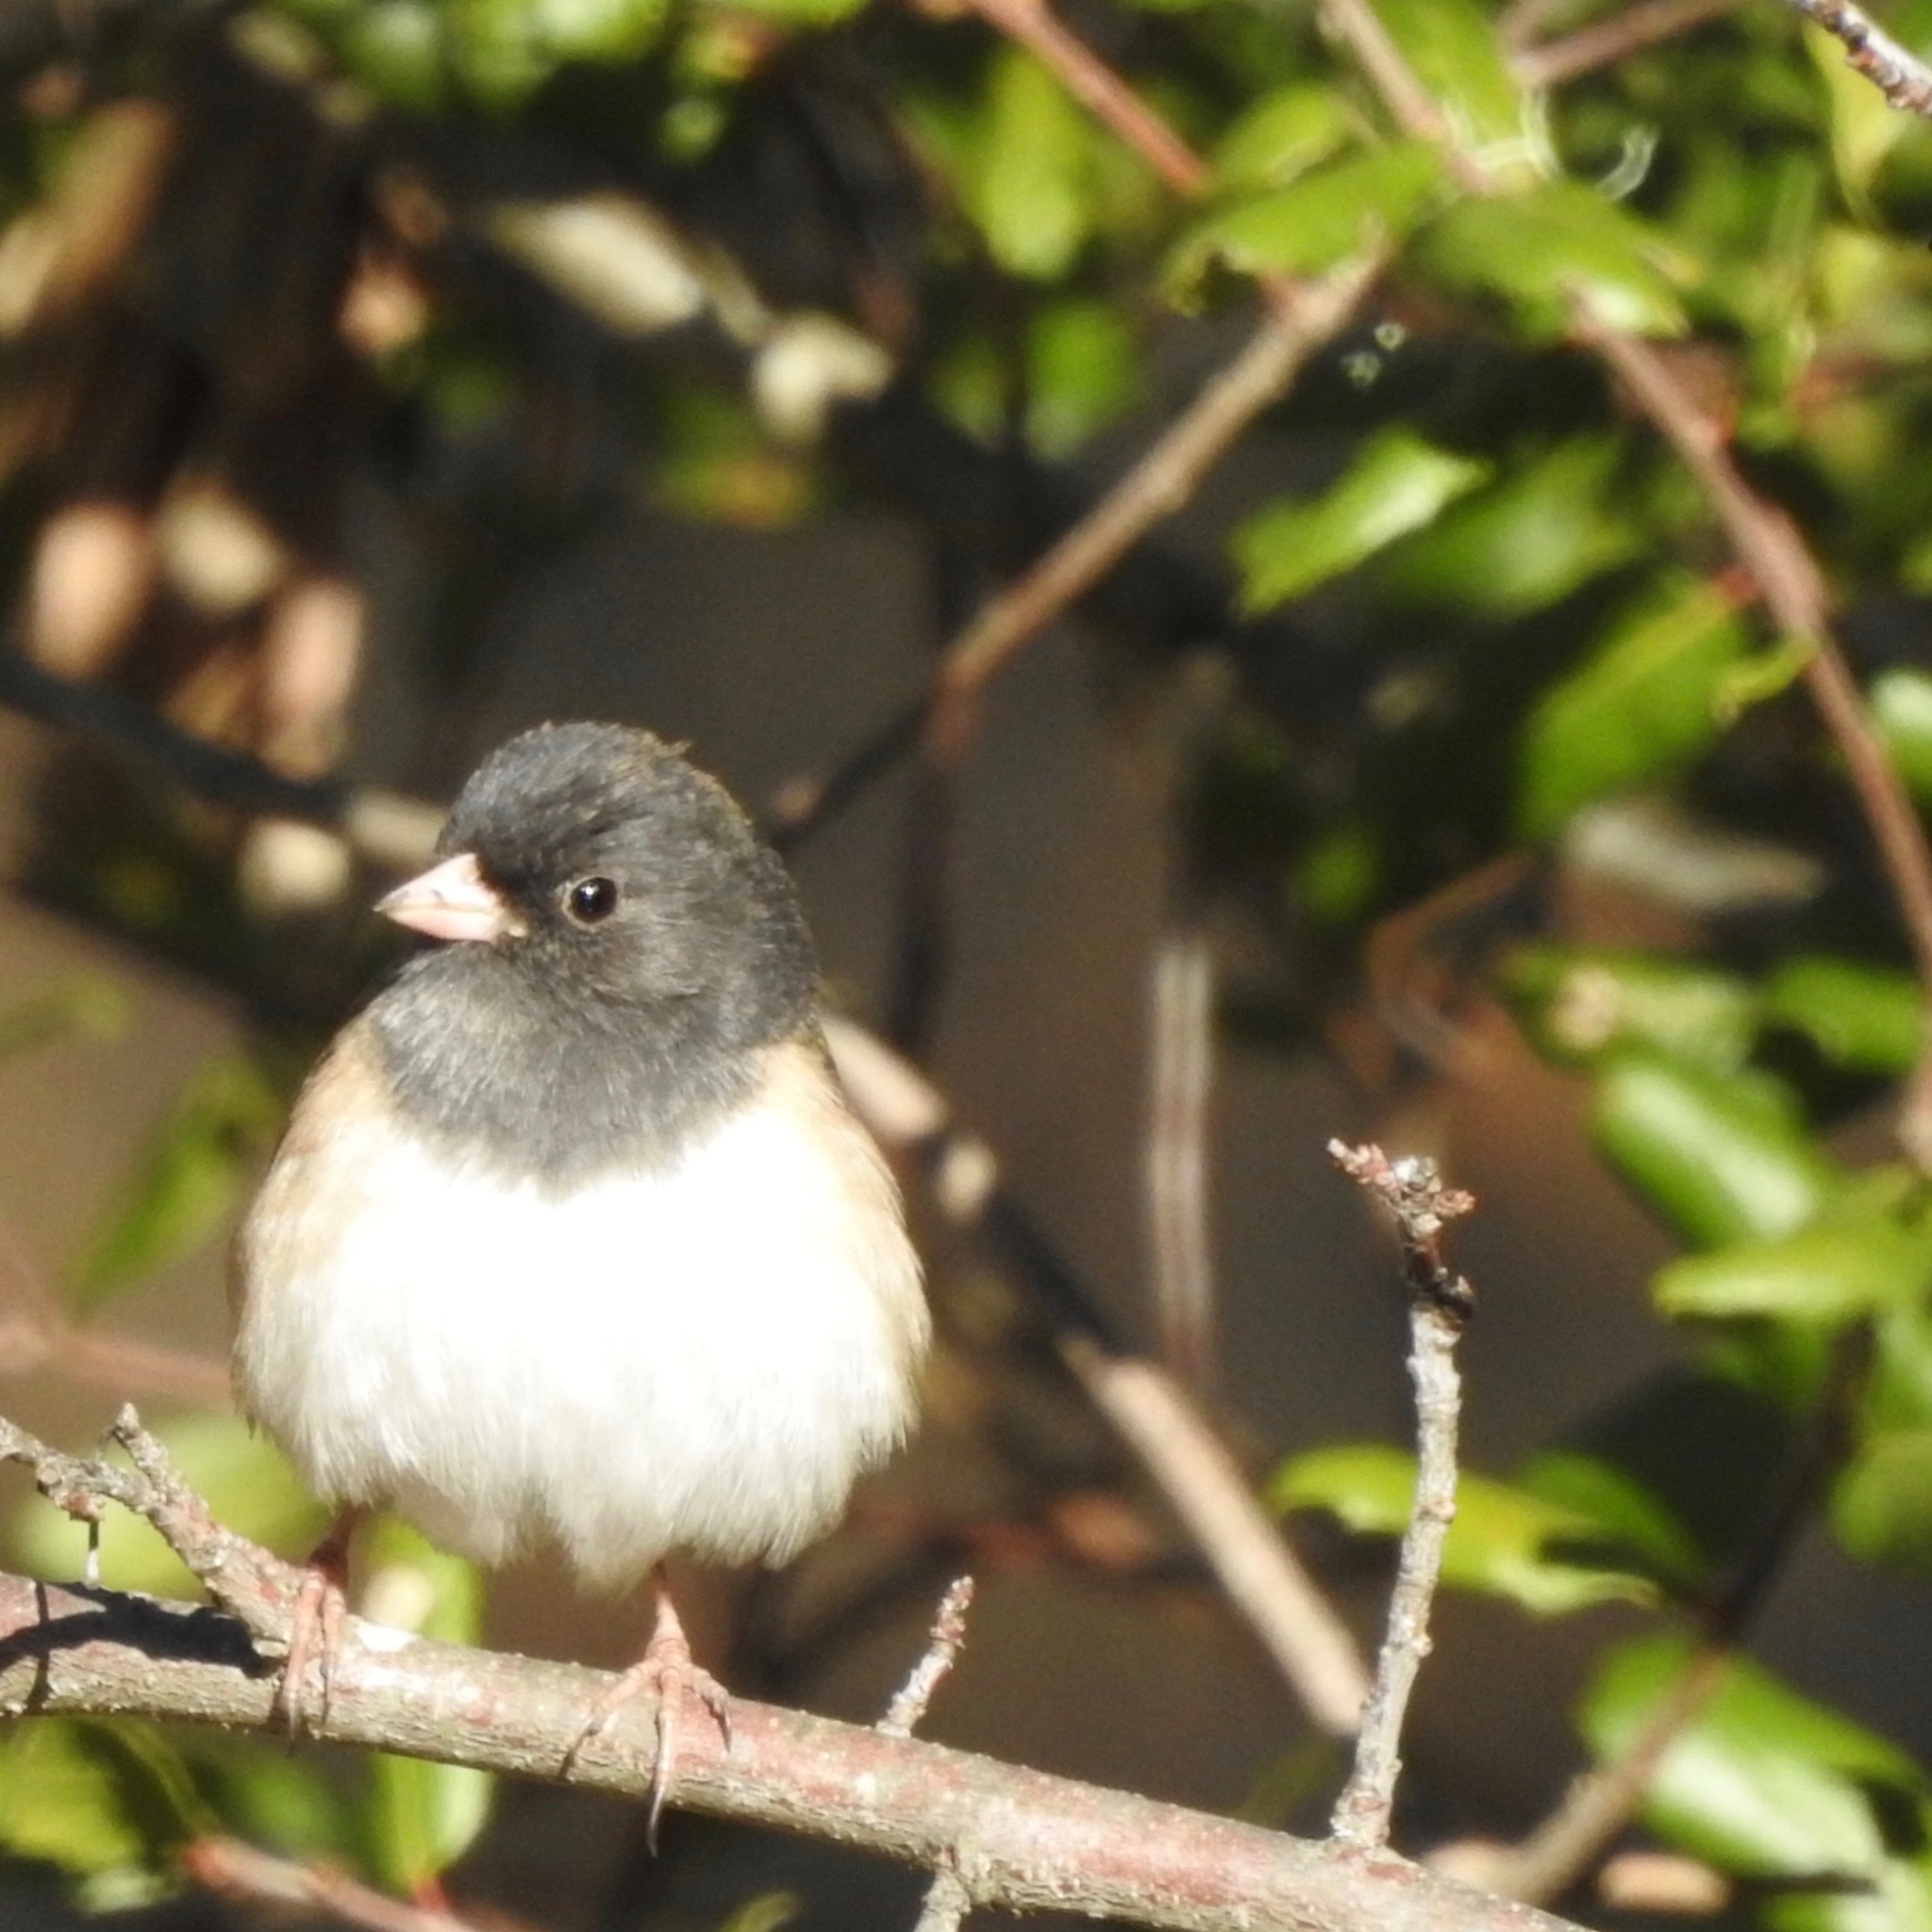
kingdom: Animalia
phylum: Chordata
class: Aves
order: Passeriformes
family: Passerellidae
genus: Junco
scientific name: Junco hyemalis
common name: Dark-eyed junco
